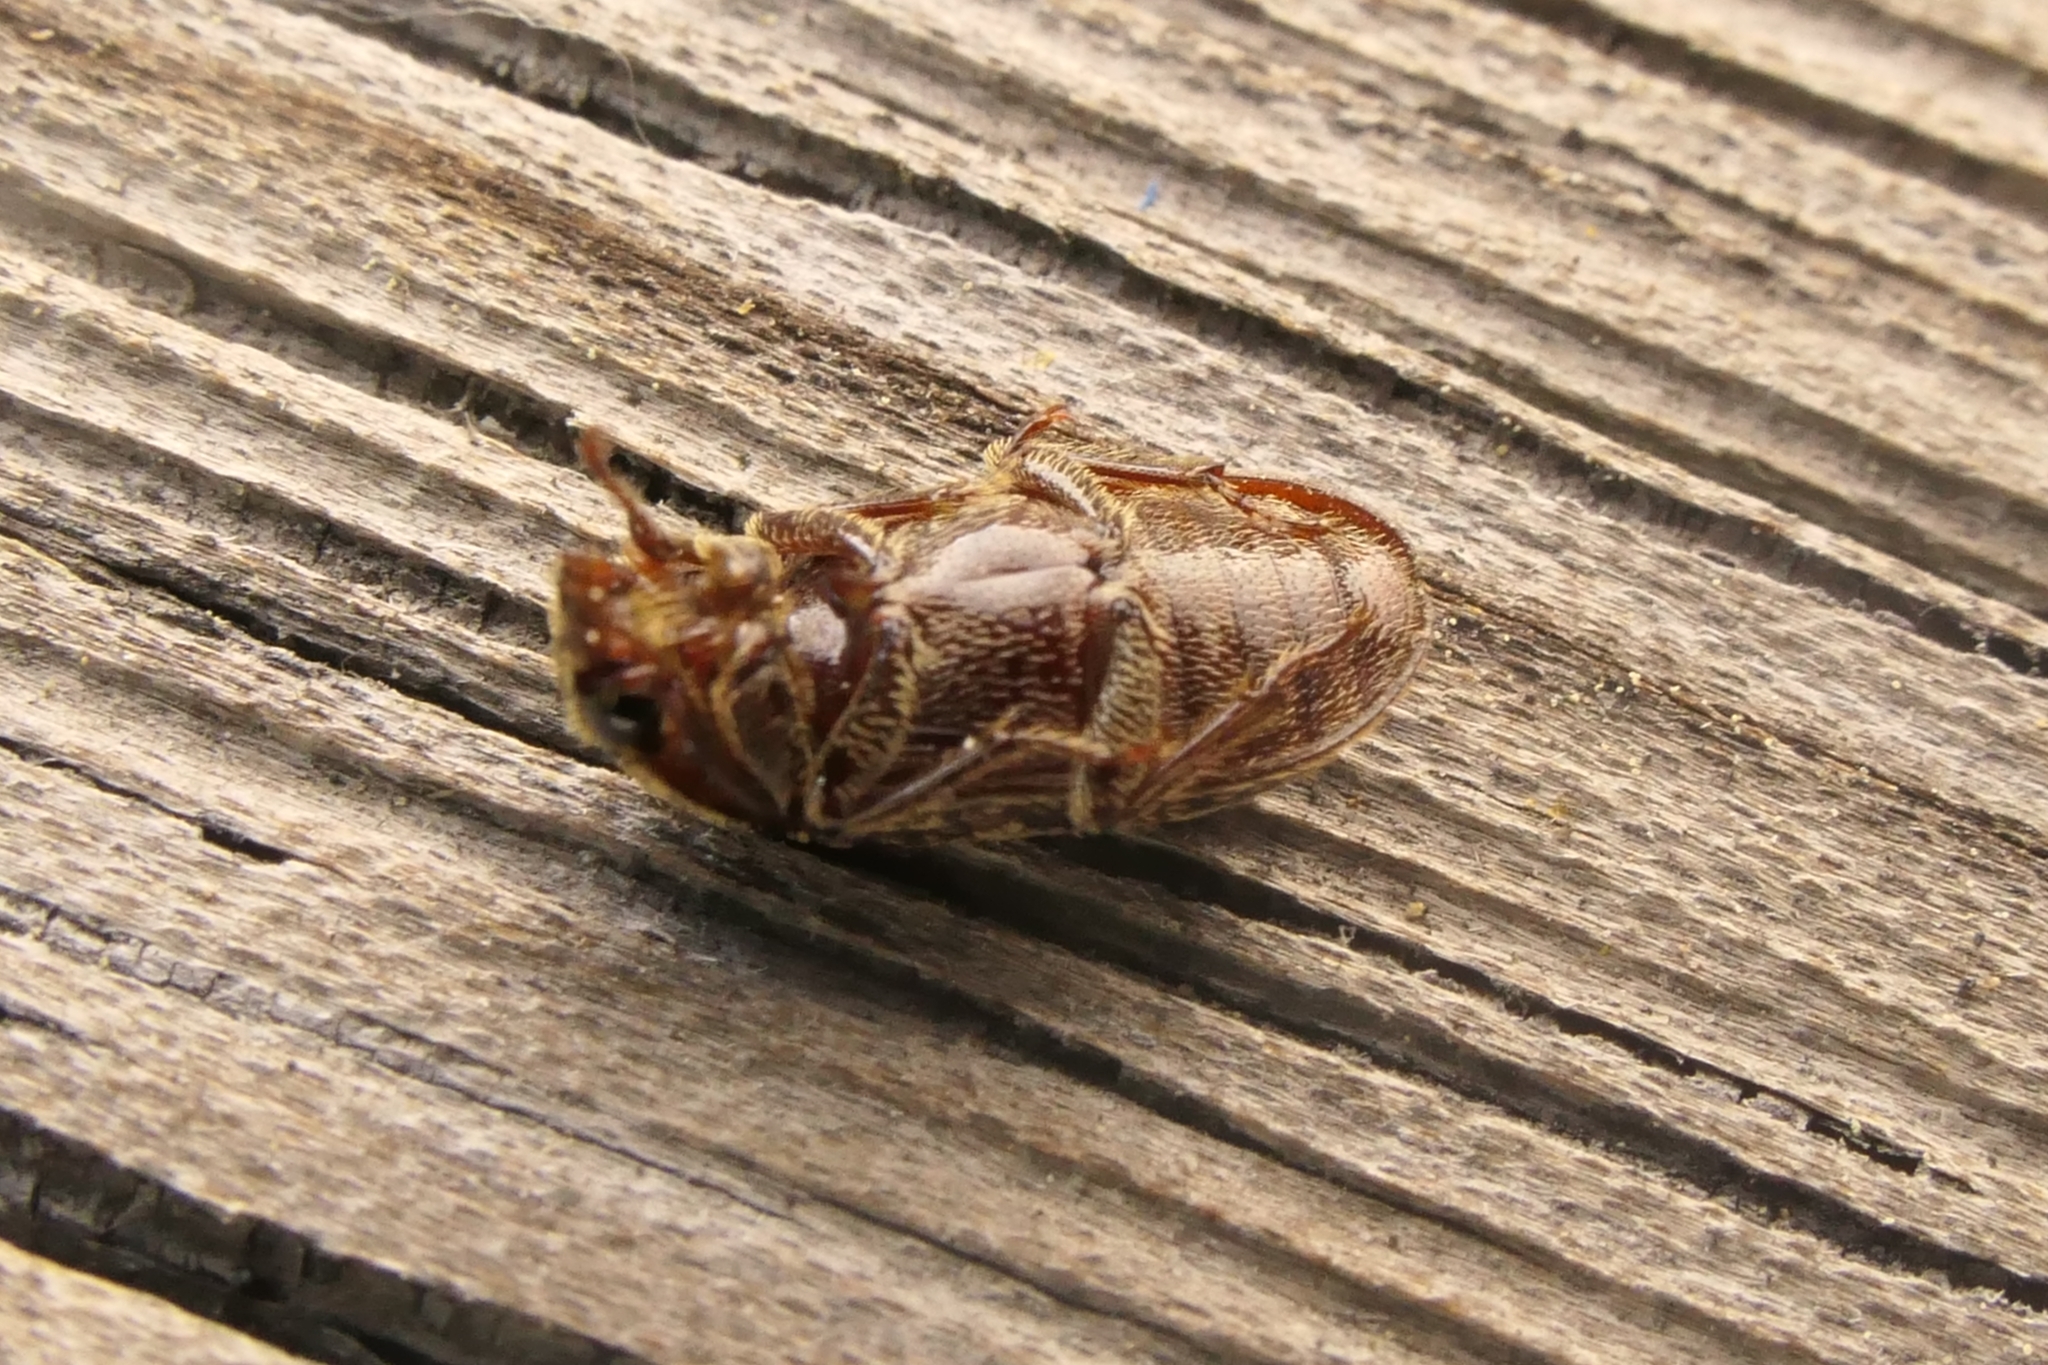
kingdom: Animalia
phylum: Arthropoda
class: Insecta
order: Coleoptera
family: Lucanidae
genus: Mitophyllus
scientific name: Mitophyllus irroratus
